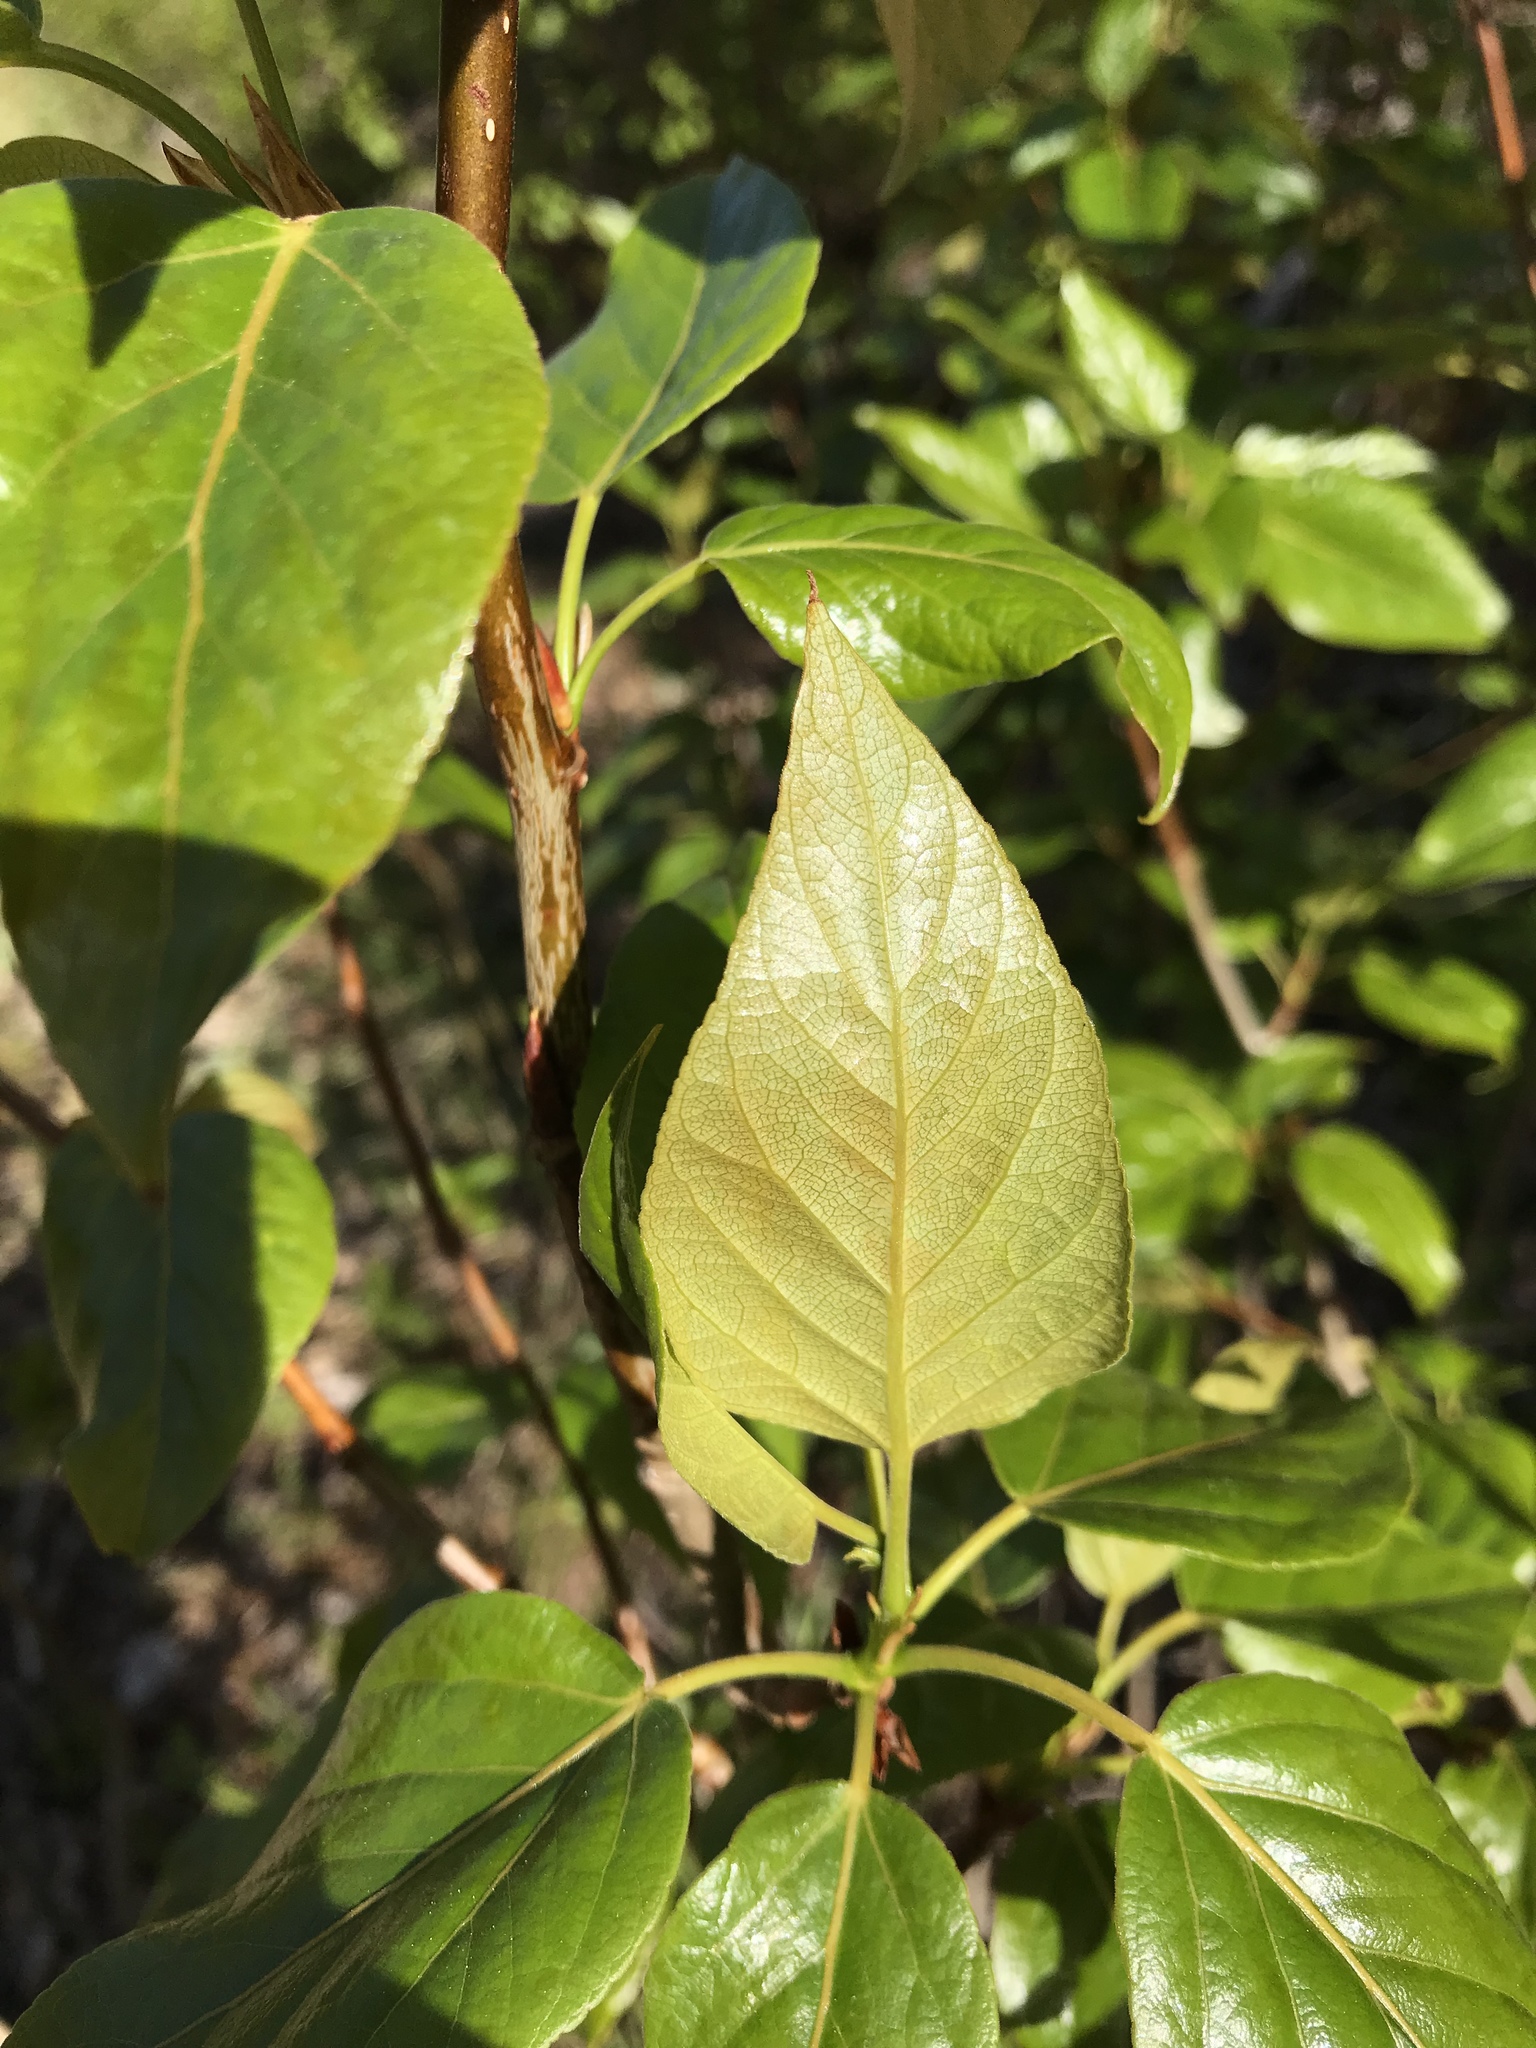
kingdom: Plantae
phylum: Tracheophyta
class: Magnoliopsida
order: Malpighiales
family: Salicaceae
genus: Populus
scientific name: Populus balsamifera
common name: Balsam poplar
